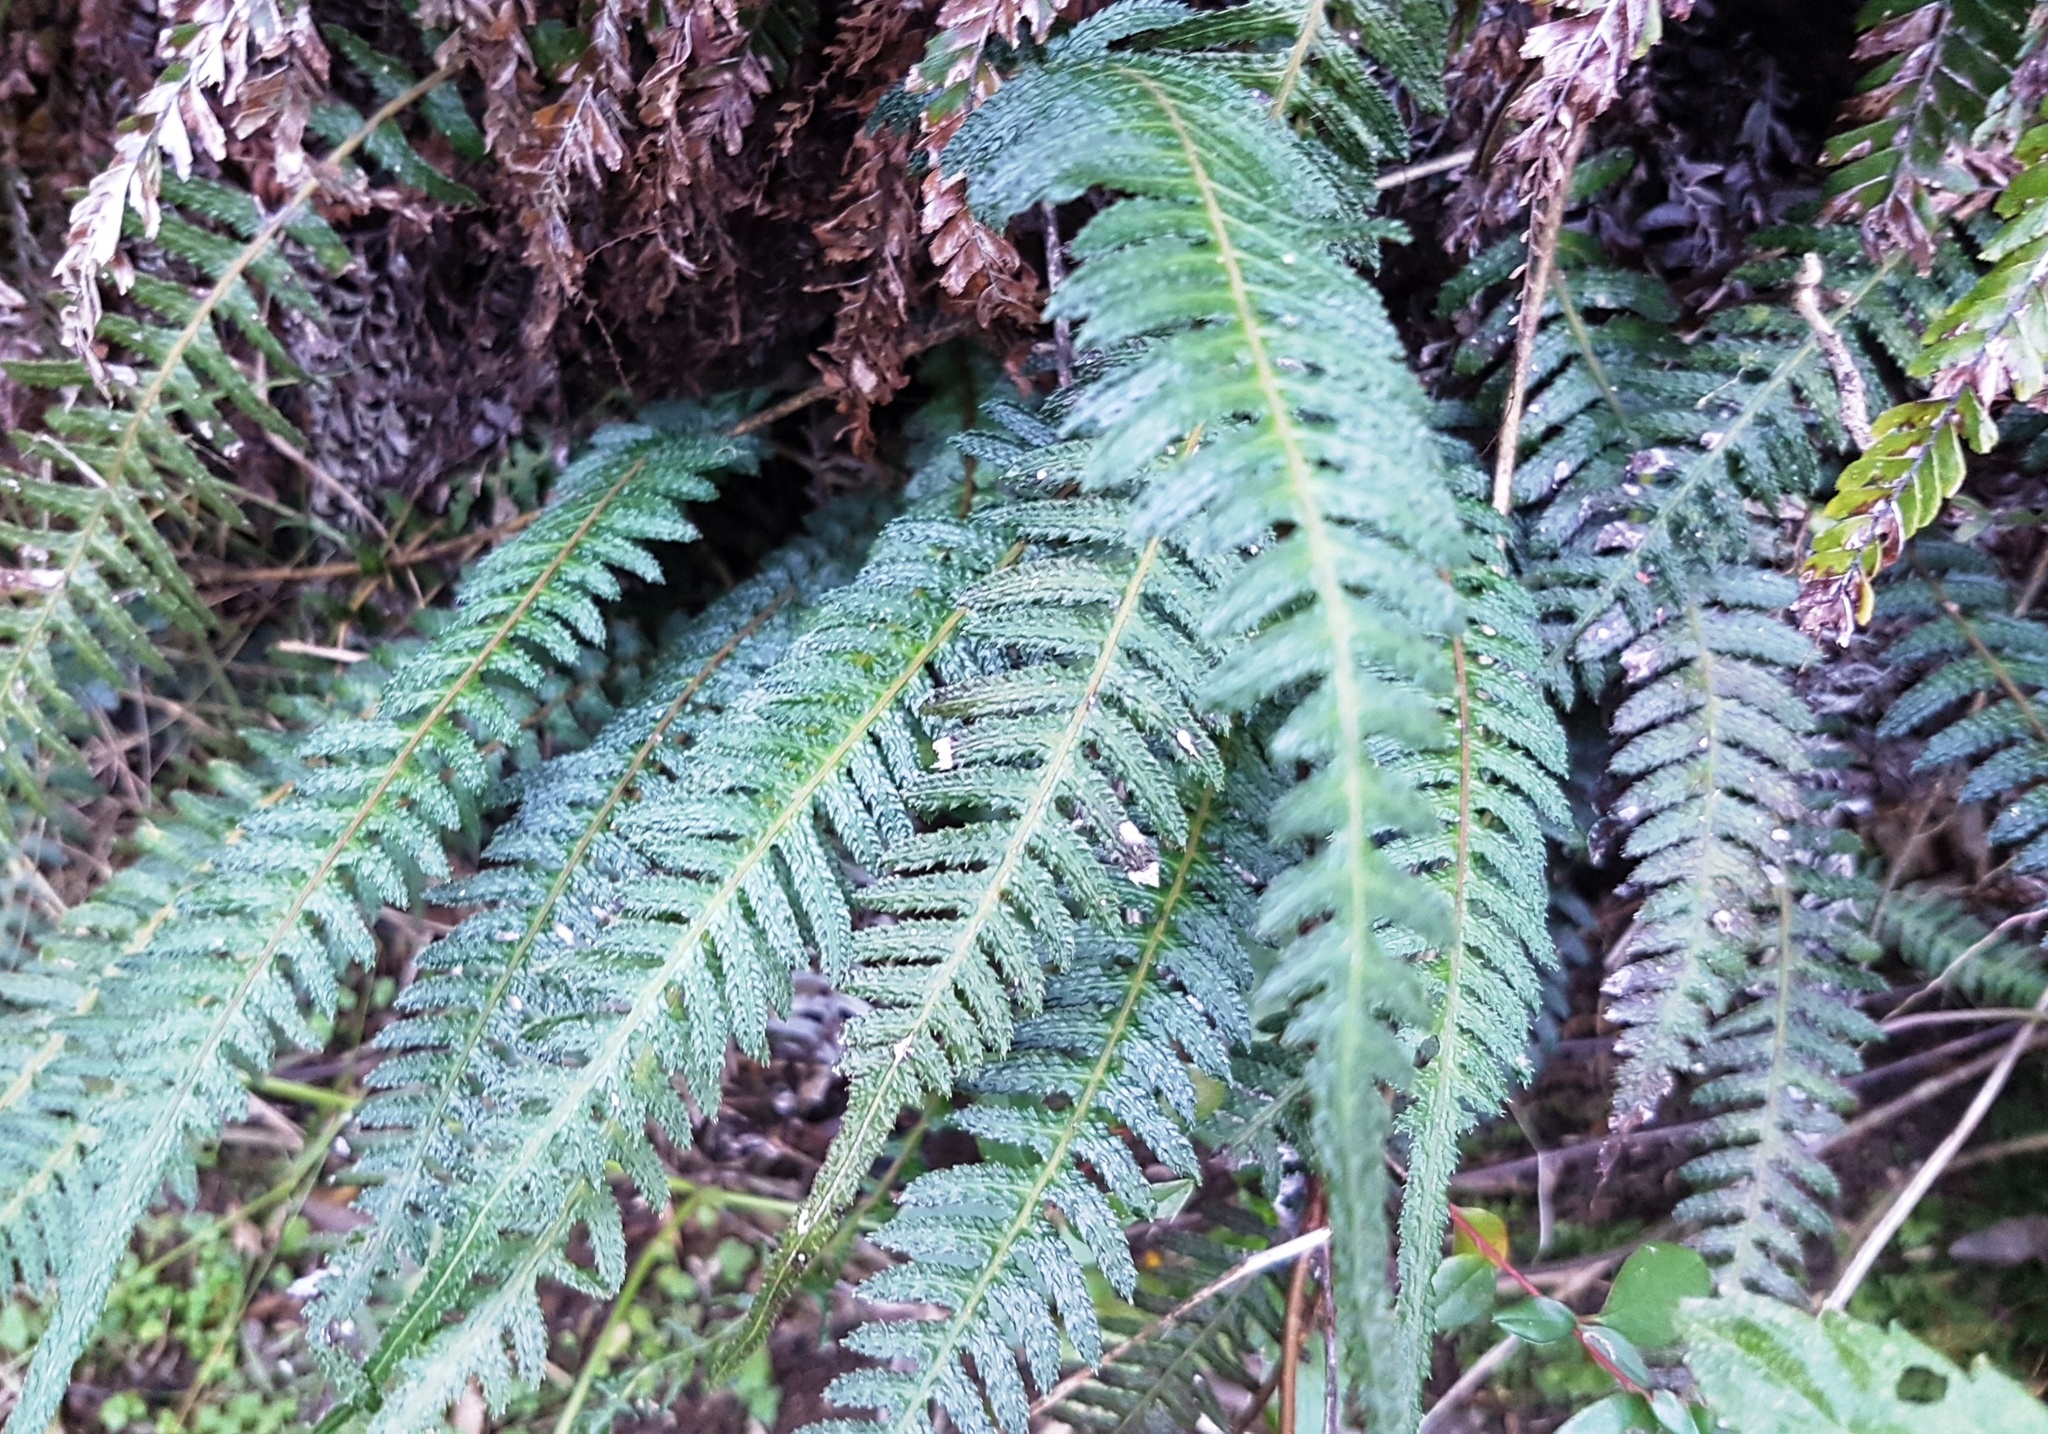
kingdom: Plantae
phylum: Tracheophyta
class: Polypodiopsida
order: Polypodiales
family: Blechnaceae
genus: Doodia
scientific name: Doodia australis
